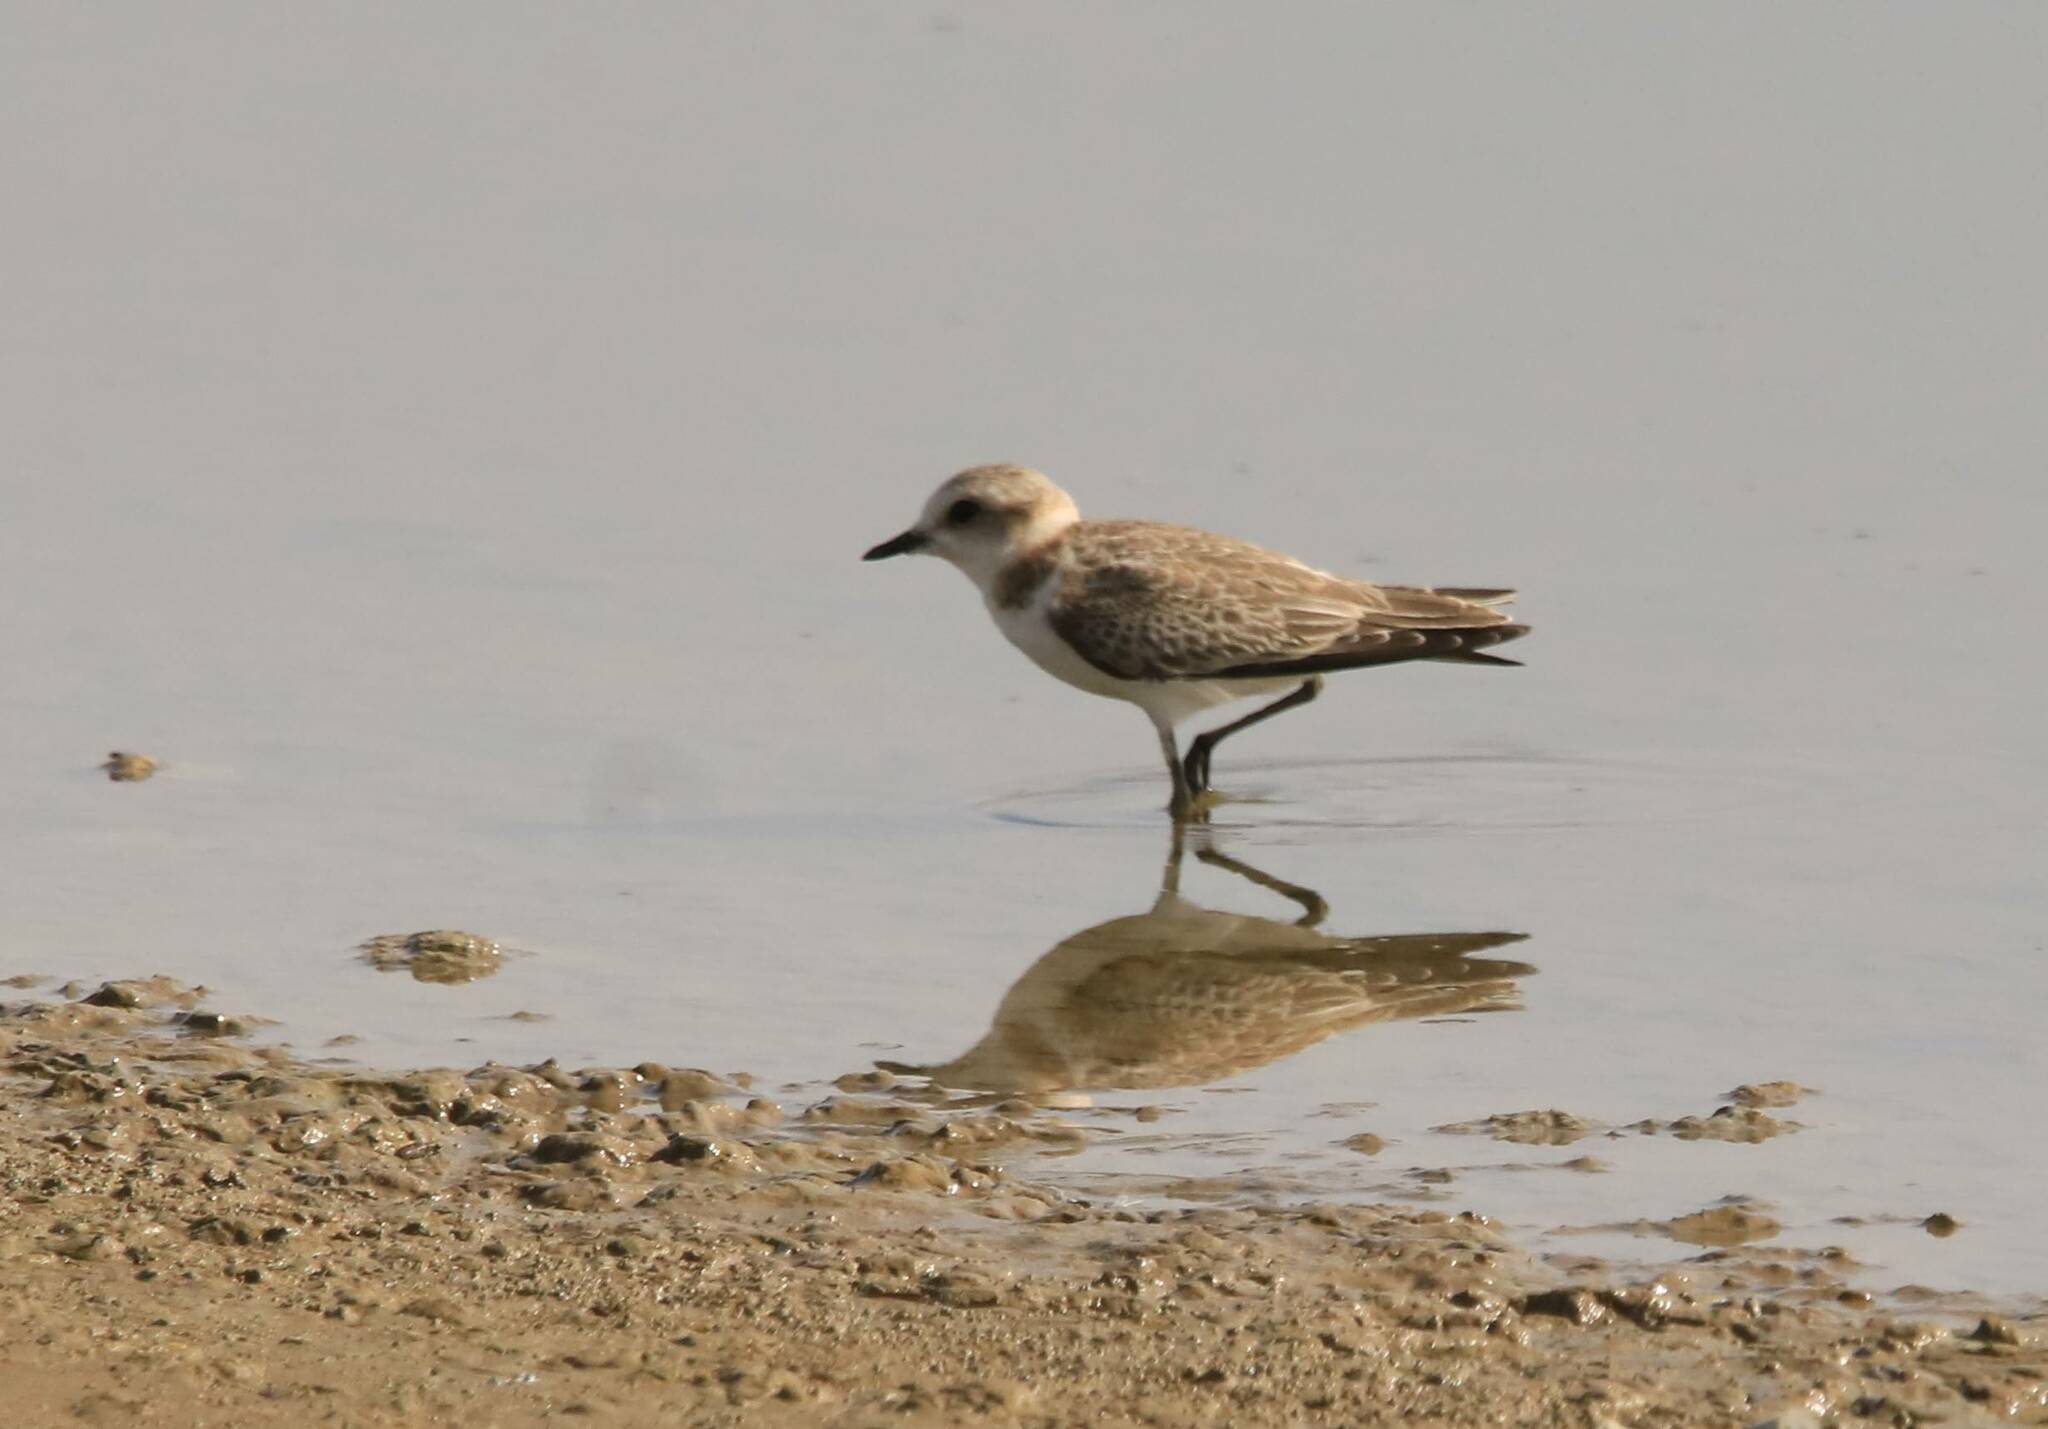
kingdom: Animalia
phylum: Chordata
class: Aves
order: Charadriiformes
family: Charadriidae
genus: Charadrius
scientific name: Charadrius alexandrinus
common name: Kentish plover
